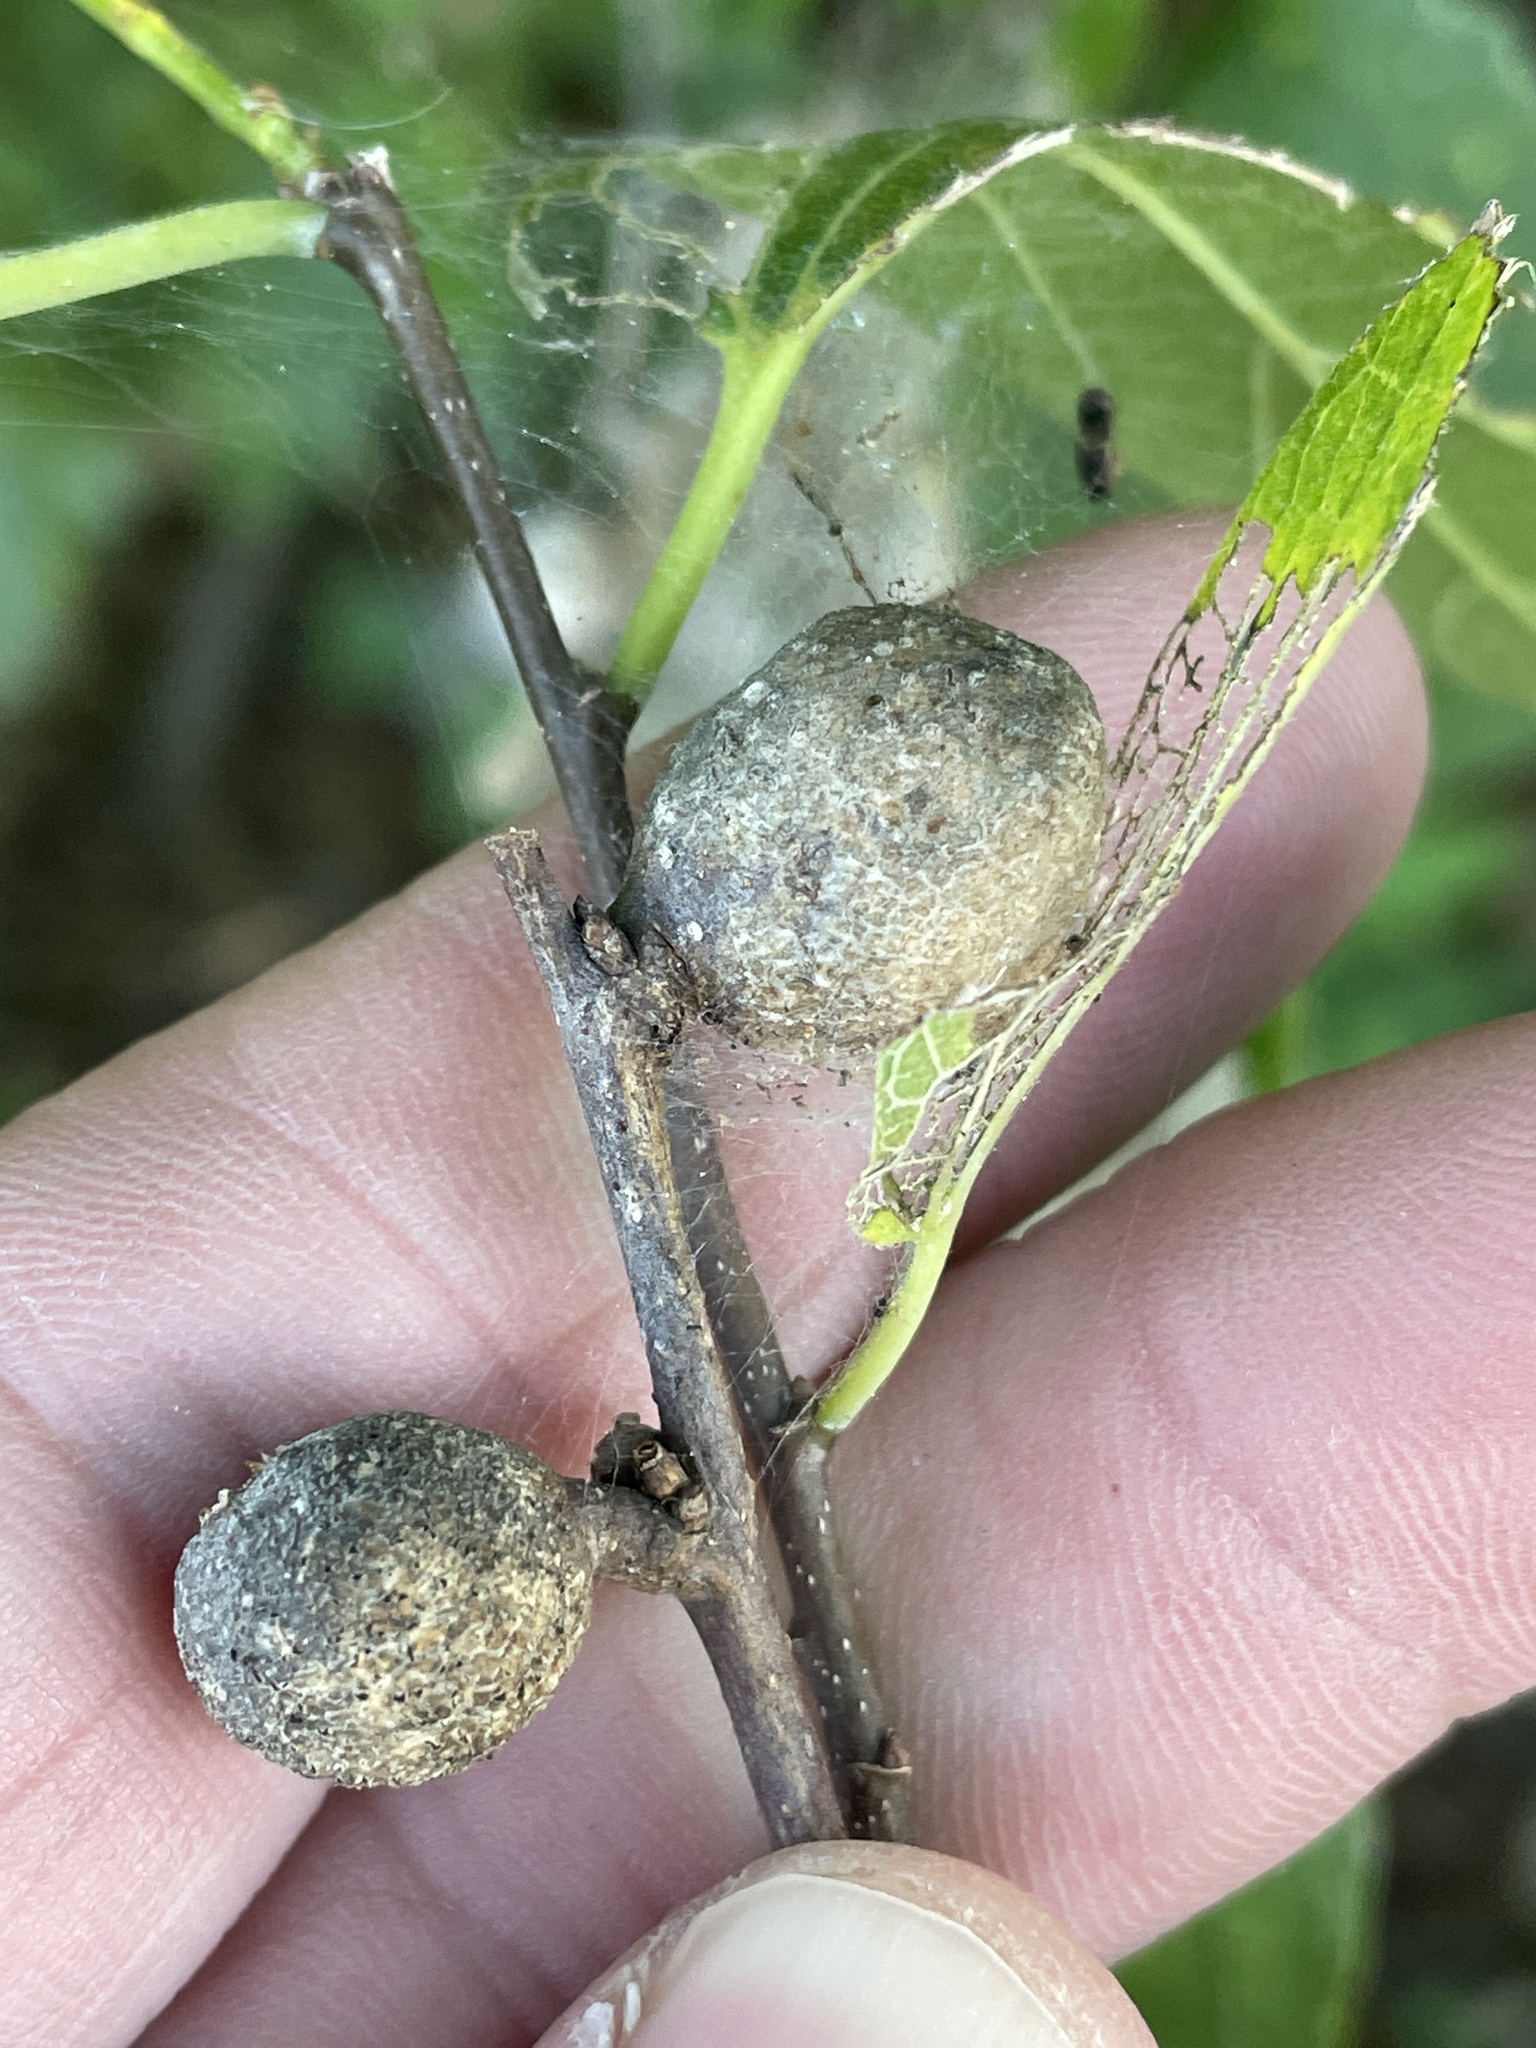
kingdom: Animalia
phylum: Arthropoda
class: Insecta
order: Hemiptera
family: Aphalaridae
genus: Pachypsylla
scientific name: Pachypsylla venusta
